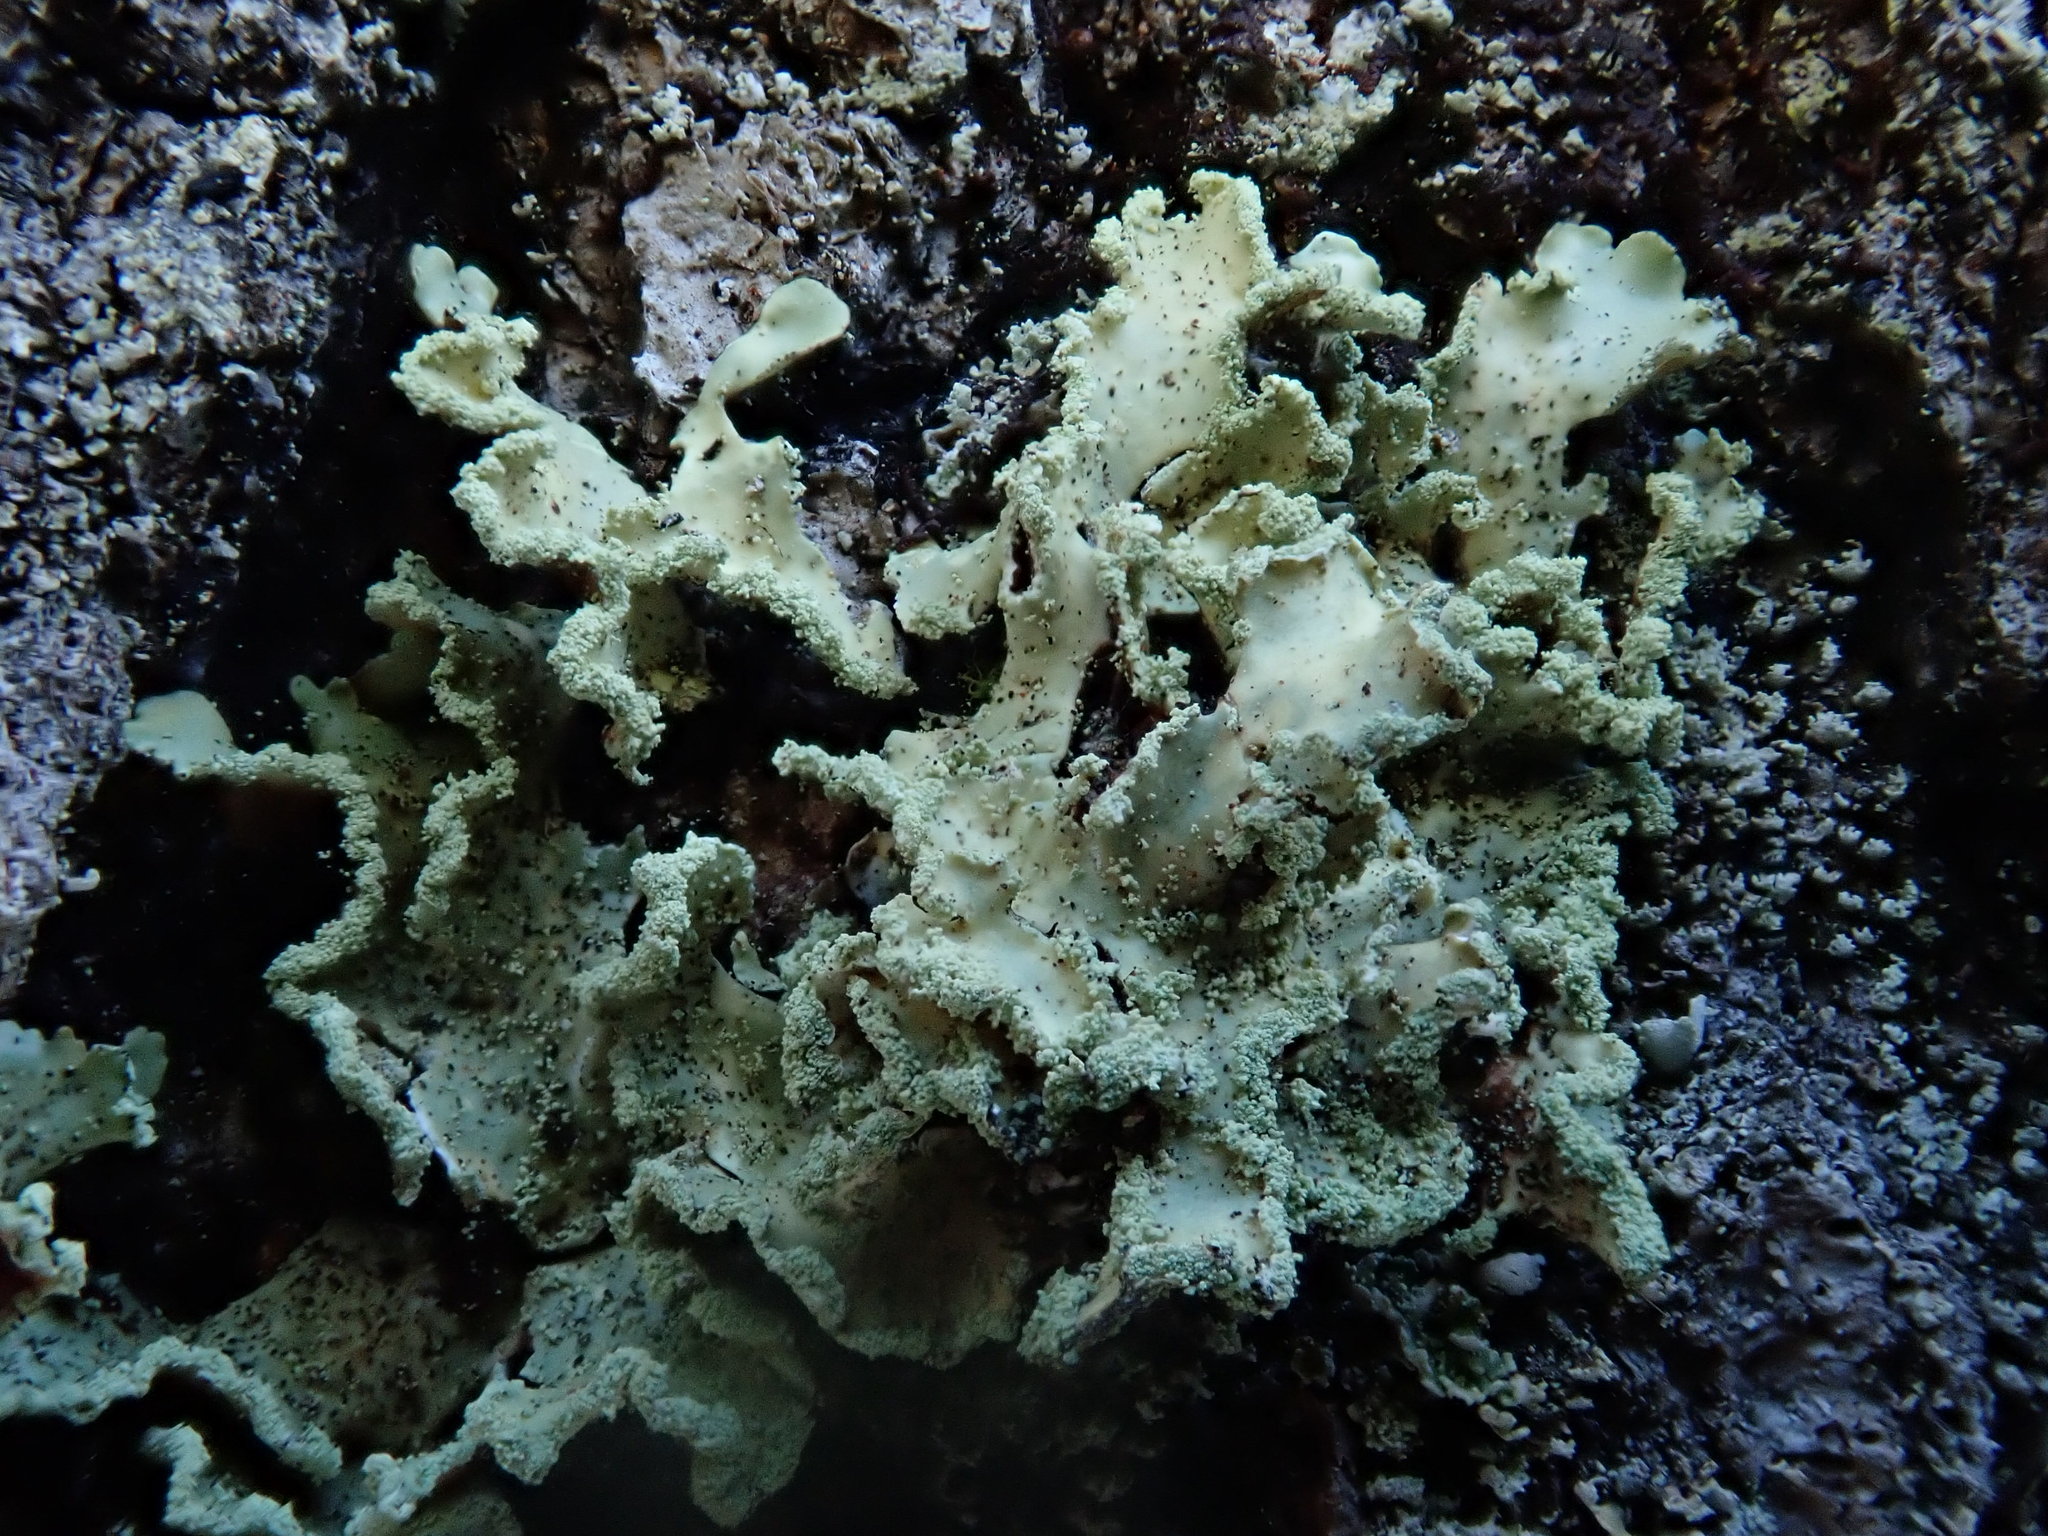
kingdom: Fungi
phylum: Ascomycota
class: Lecanoromycetes
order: Lecanorales
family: Parmeliaceae
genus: Usnocetraria
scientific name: Usnocetraria oakesiana
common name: Yellow ribbon lichen
